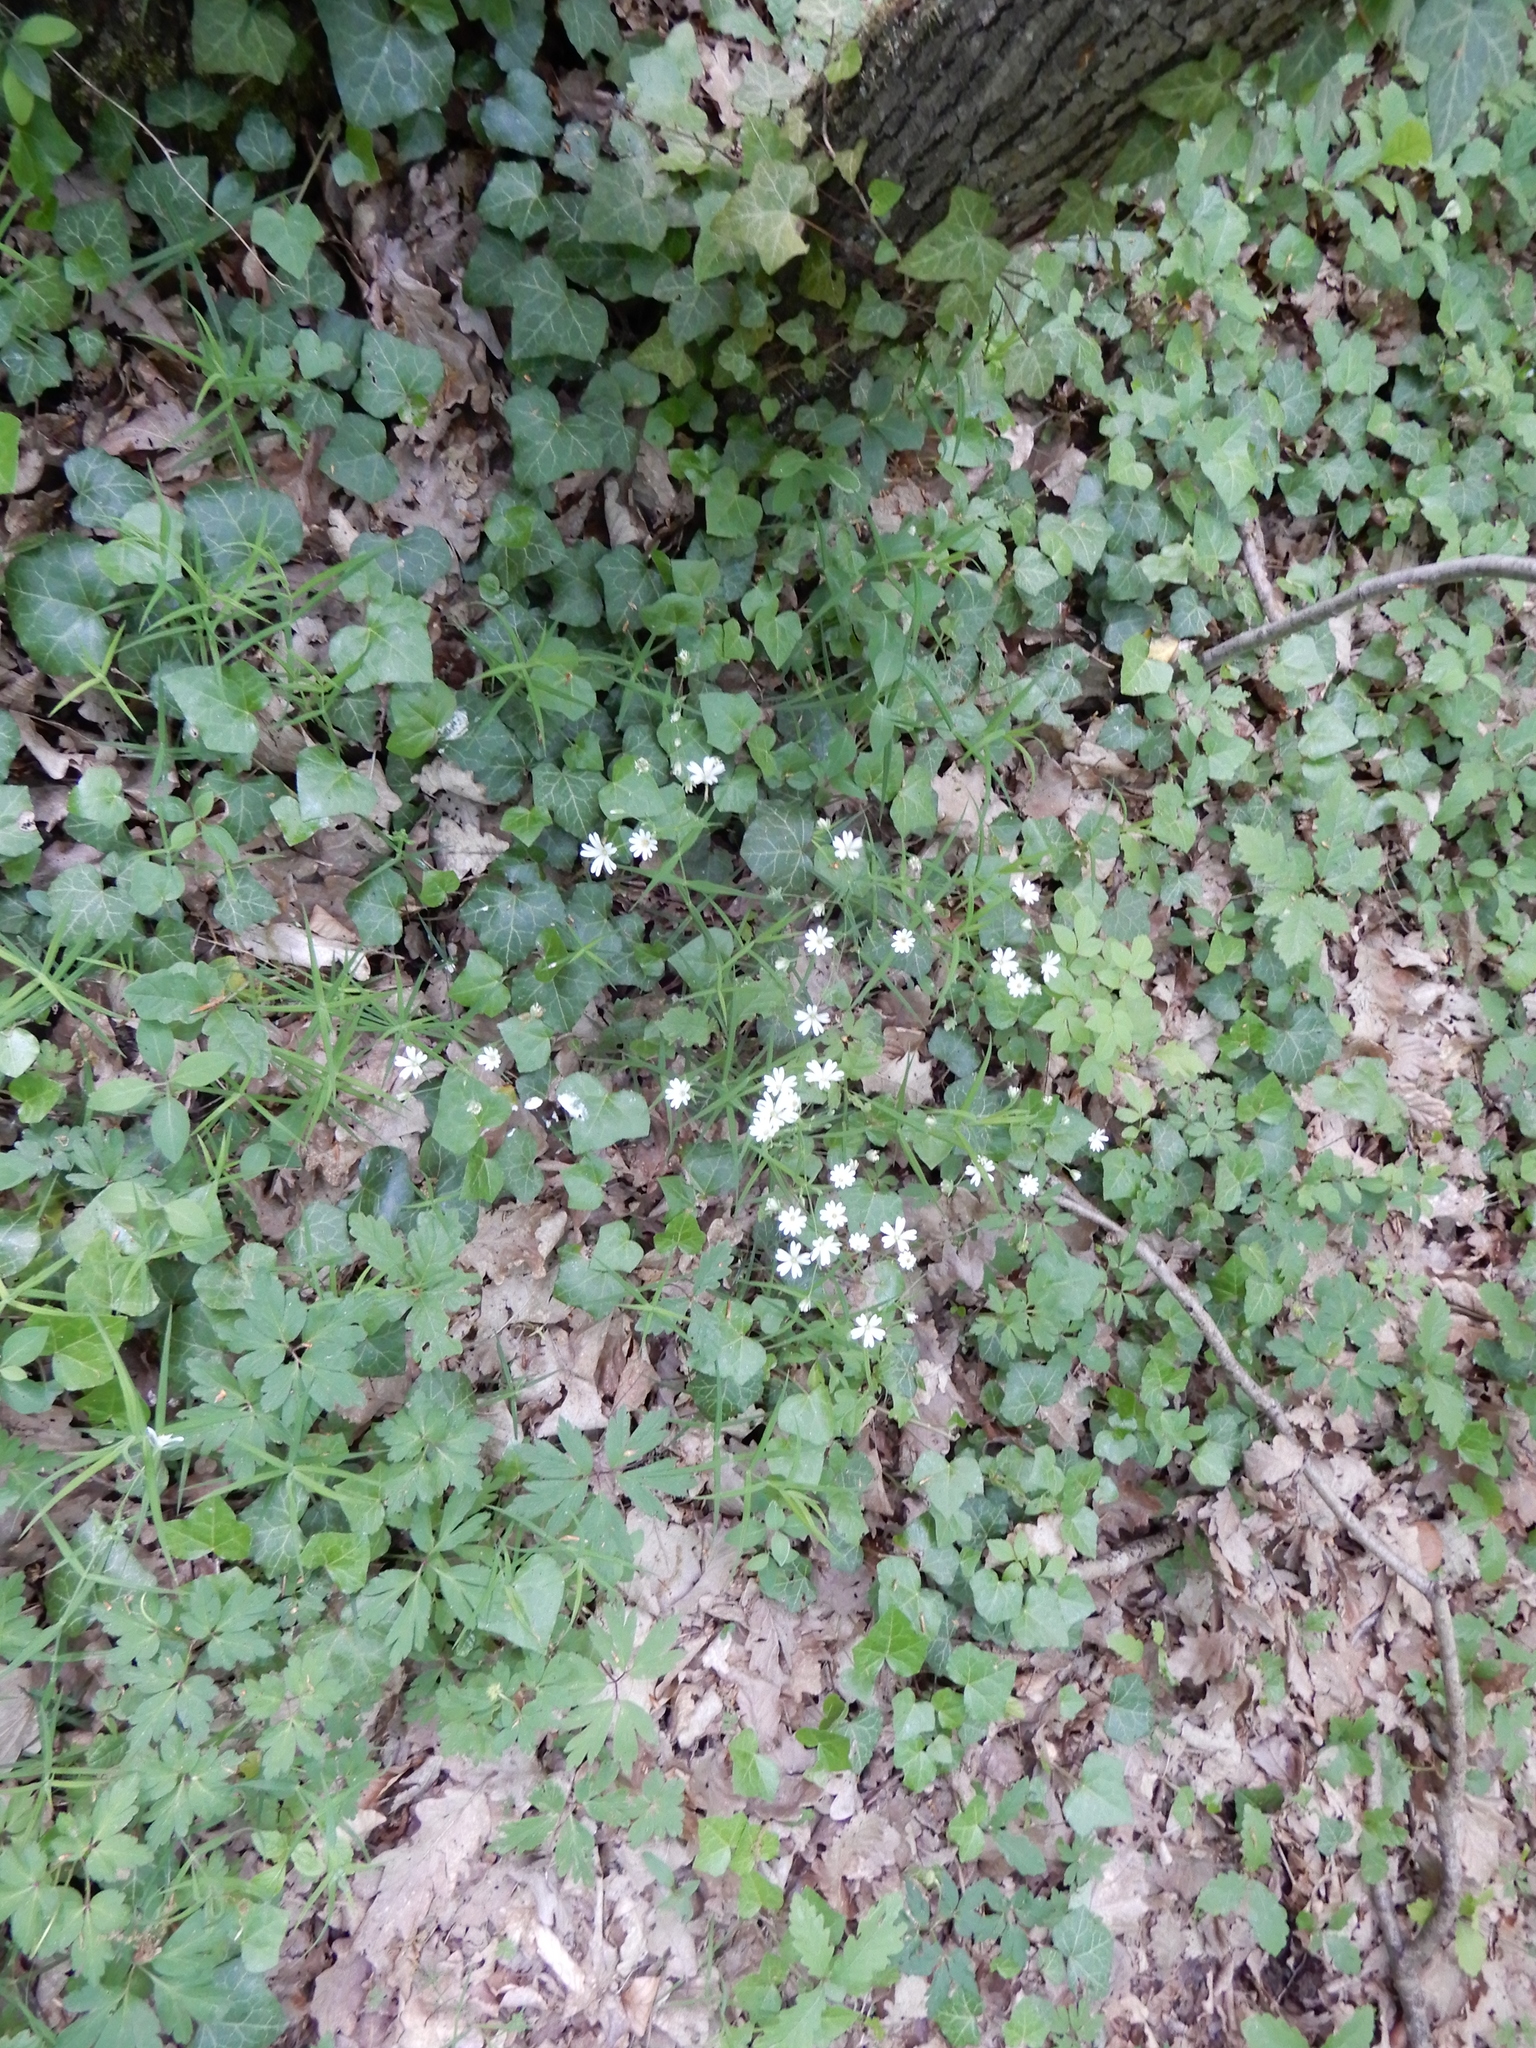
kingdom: Plantae
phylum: Tracheophyta
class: Magnoliopsida
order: Caryophyllales
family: Caryophyllaceae
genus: Rabelera
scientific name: Rabelera holostea
